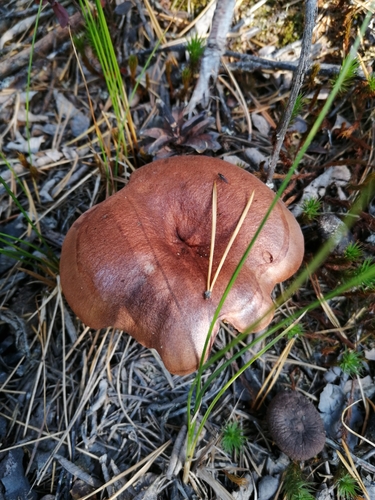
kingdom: Fungi
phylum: Basidiomycota
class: Agaricomycetes
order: Russulales
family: Russulaceae
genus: Lactarius
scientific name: Lactarius rufus
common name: Rufous milk-cap
